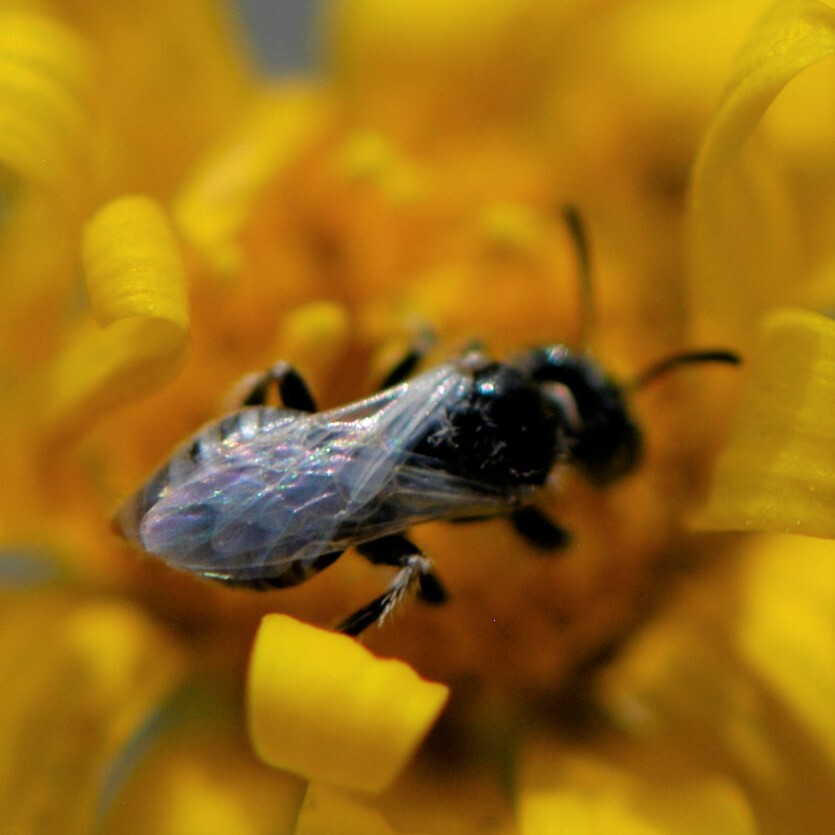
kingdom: Animalia
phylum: Arthropoda
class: Insecta
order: Hymenoptera
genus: Pentaperdita
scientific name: Pentaperdita
